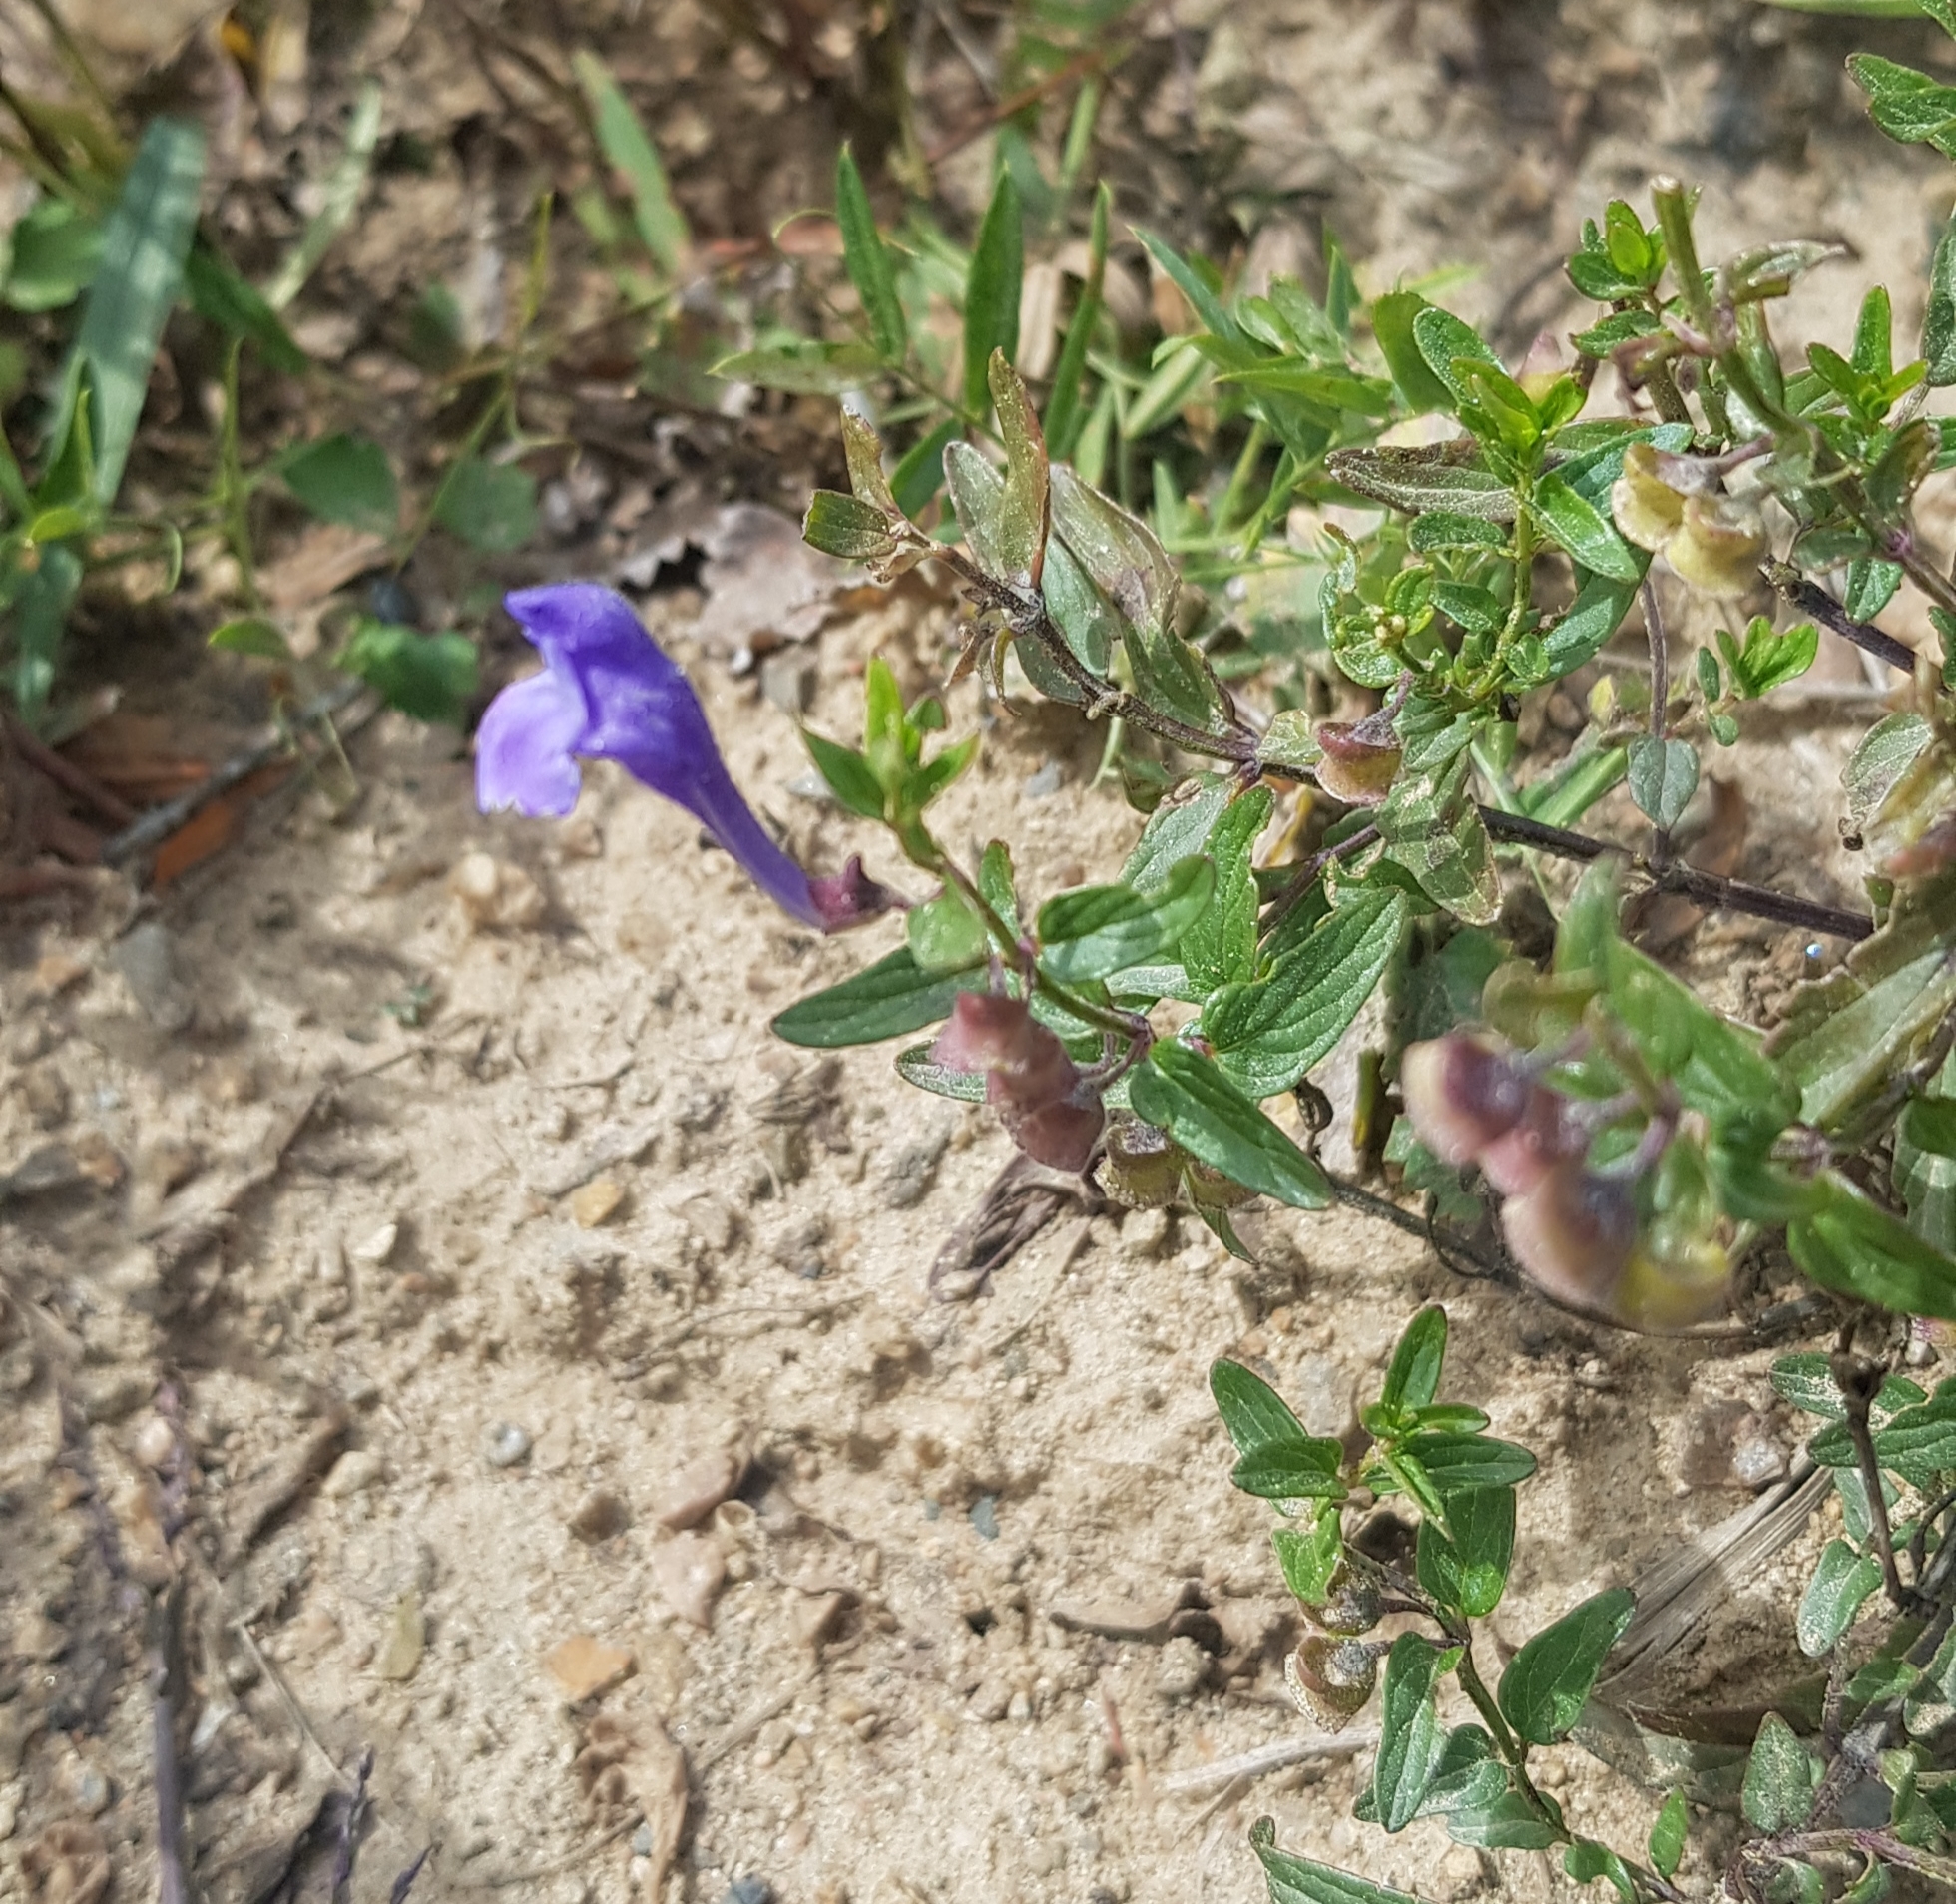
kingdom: Plantae
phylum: Tracheophyta
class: Magnoliopsida
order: Lamiales
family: Lamiaceae
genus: Scutellaria
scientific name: Scutellaria scordiifolia
